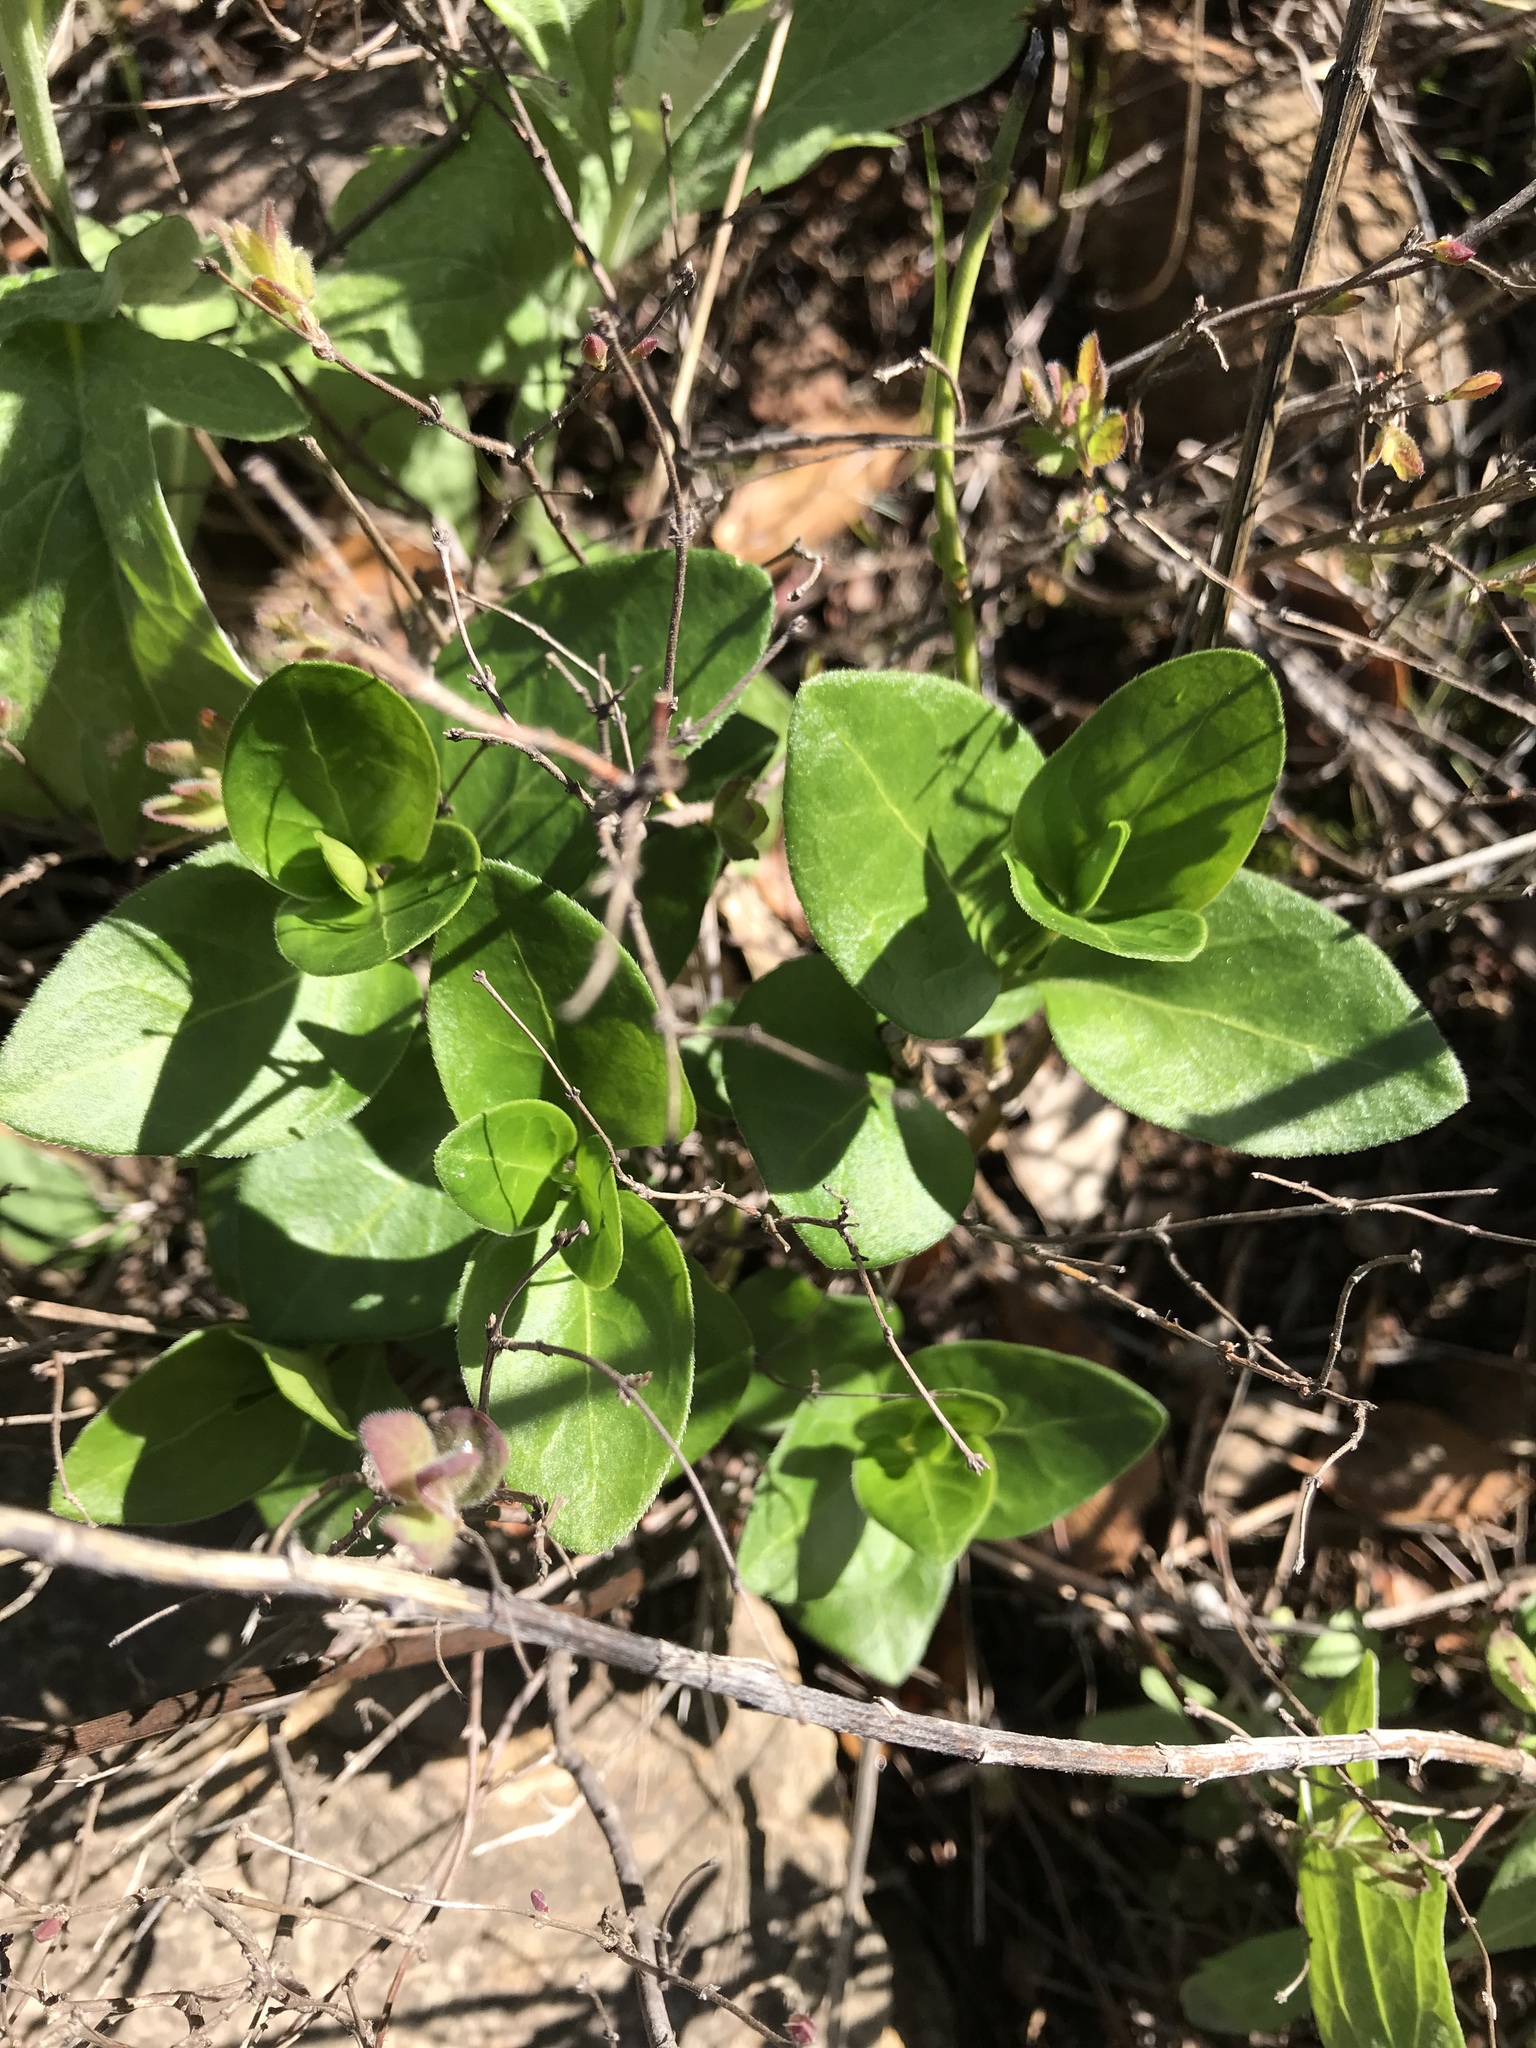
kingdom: Plantae
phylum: Tracheophyta
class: Magnoliopsida
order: Gentianales
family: Apocynaceae
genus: Vinca
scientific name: Vinca major
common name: Greater periwinkle
